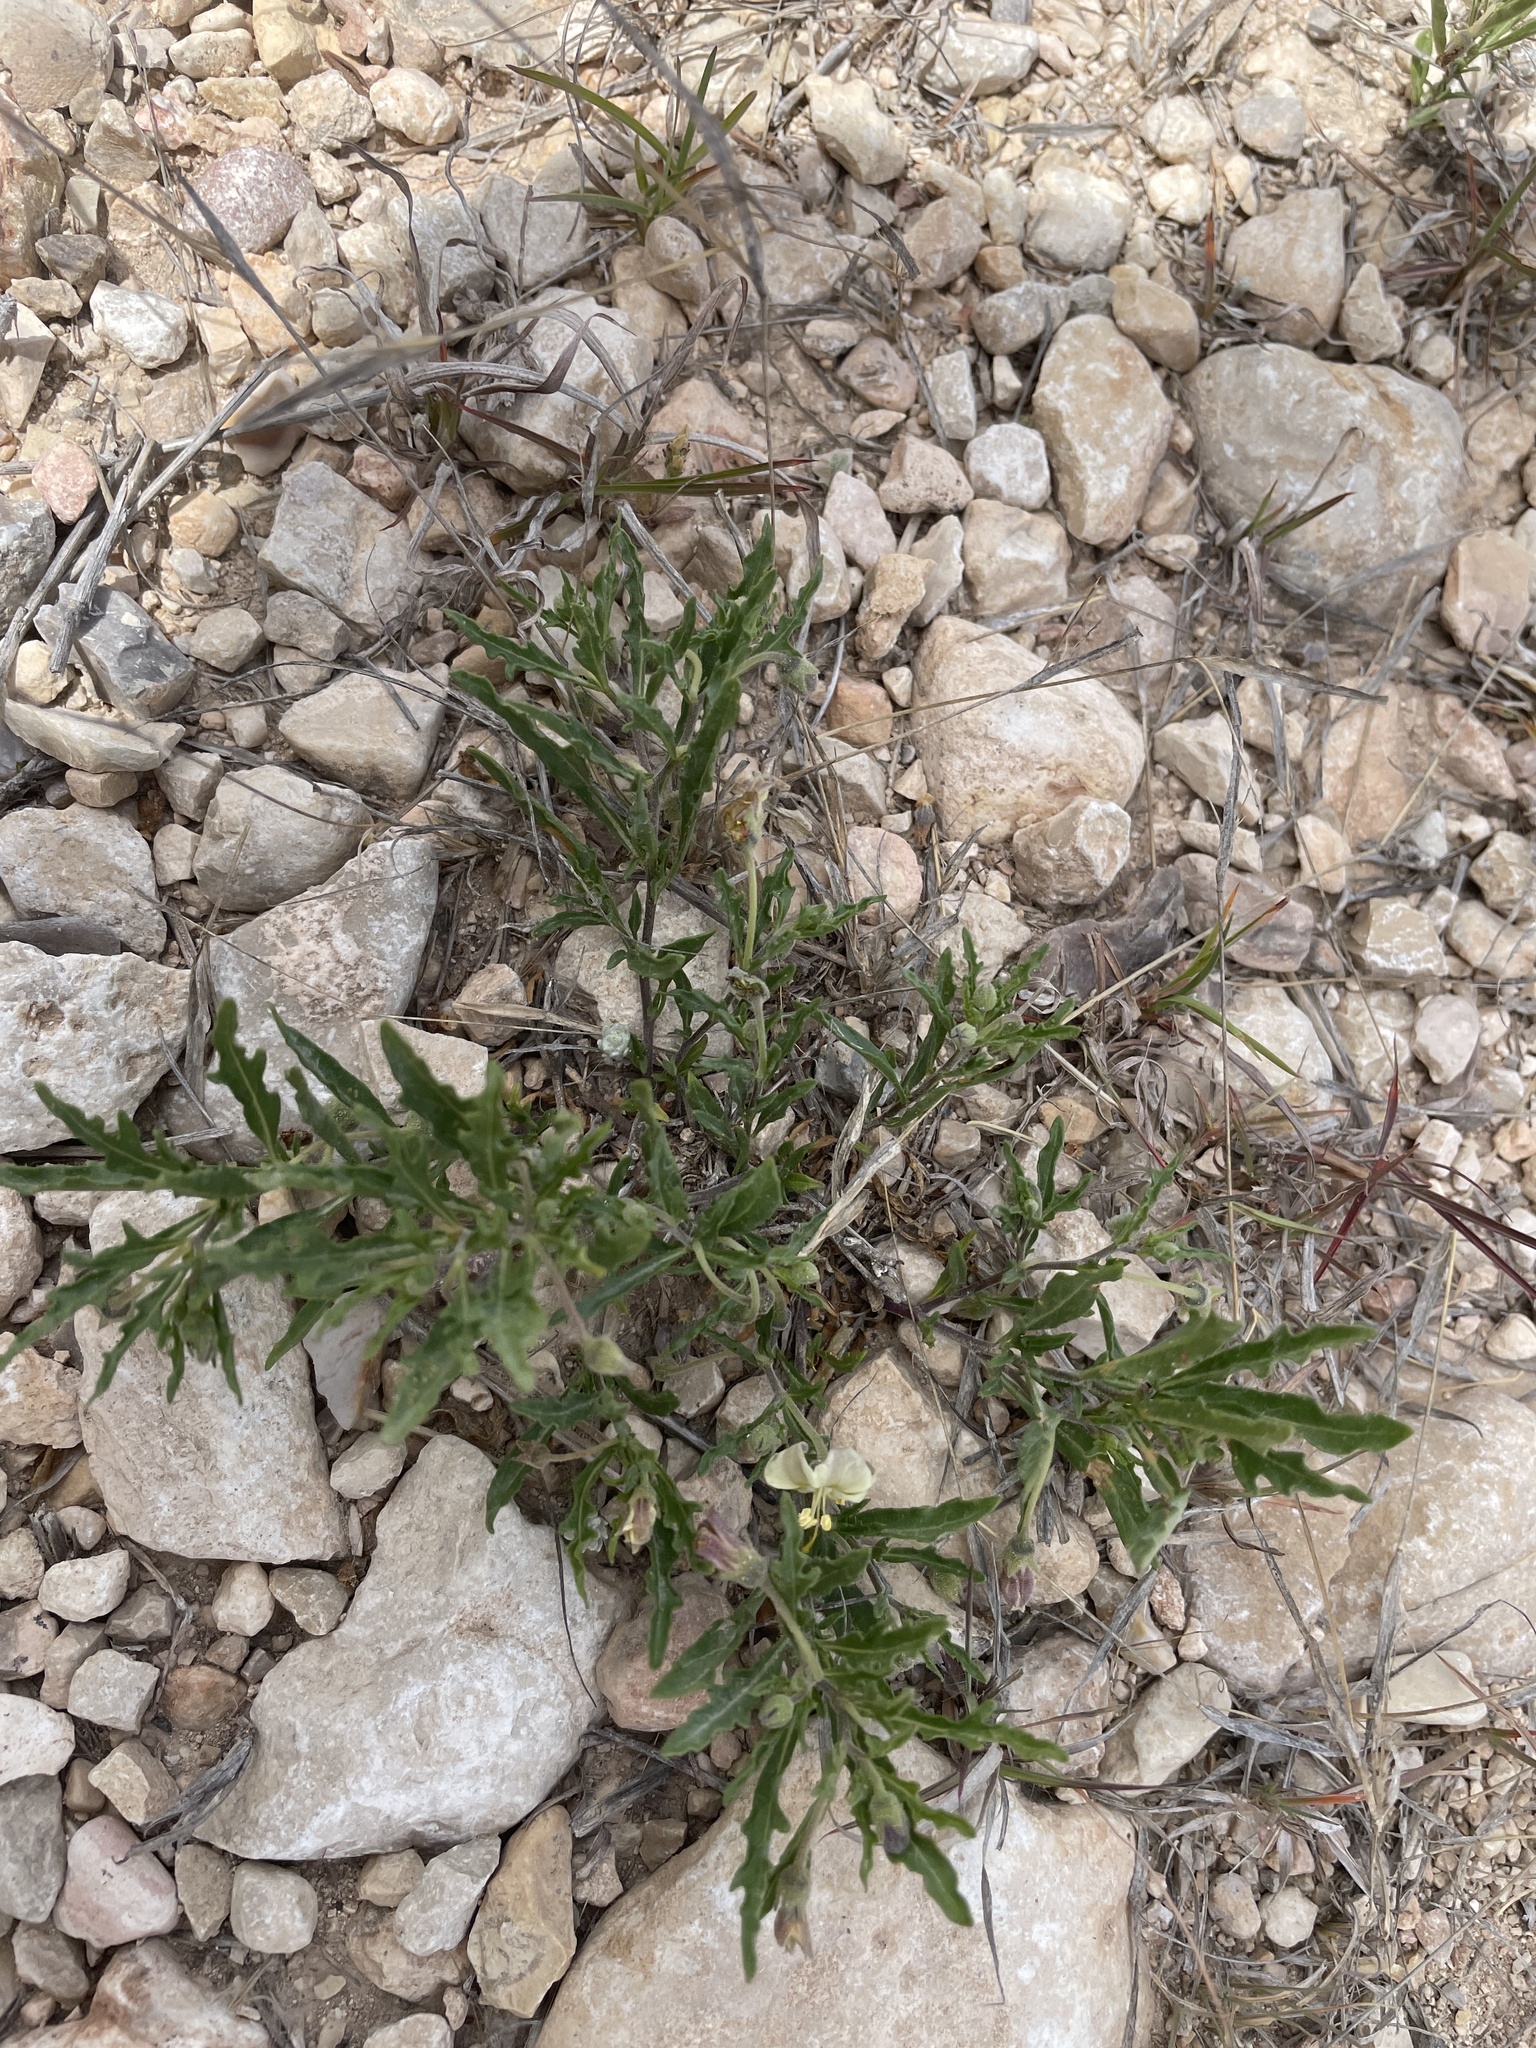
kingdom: Plantae
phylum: Tracheophyta
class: Magnoliopsida
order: Solanales
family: Solanaceae
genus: Chamaesaracha
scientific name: Chamaesaracha edwardsiana
